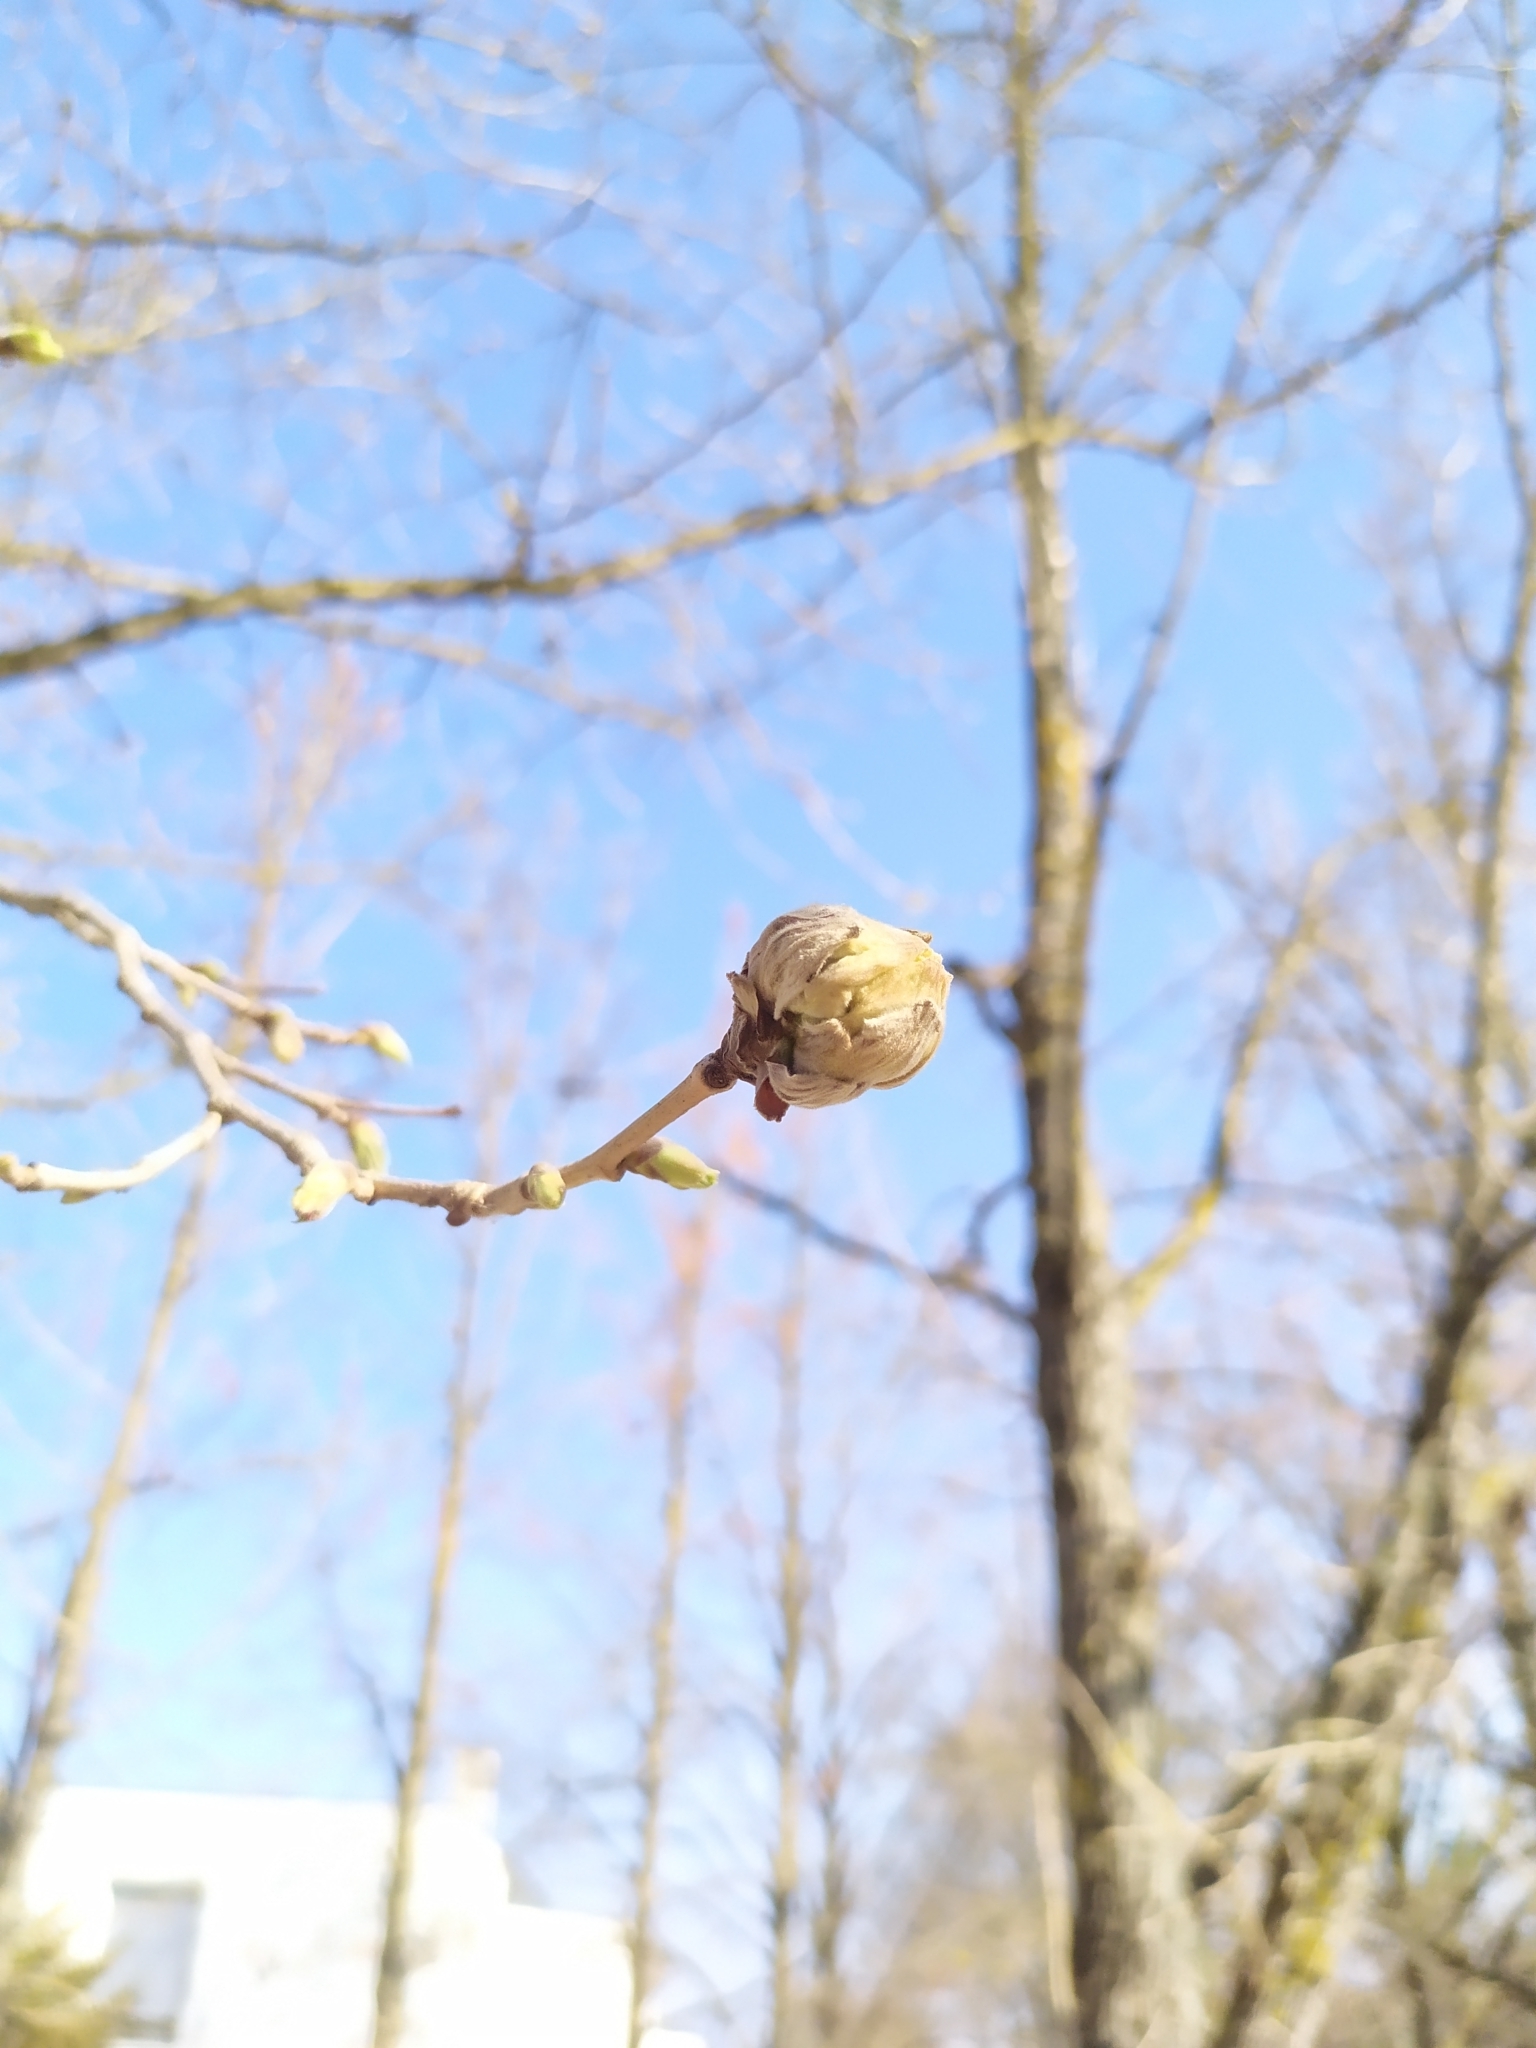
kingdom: Animalia
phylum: Arthropoda
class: Arachnida
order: Trombidiformes
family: Phytoptidae
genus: Phytoptus
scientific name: Phytoptus avellanae
